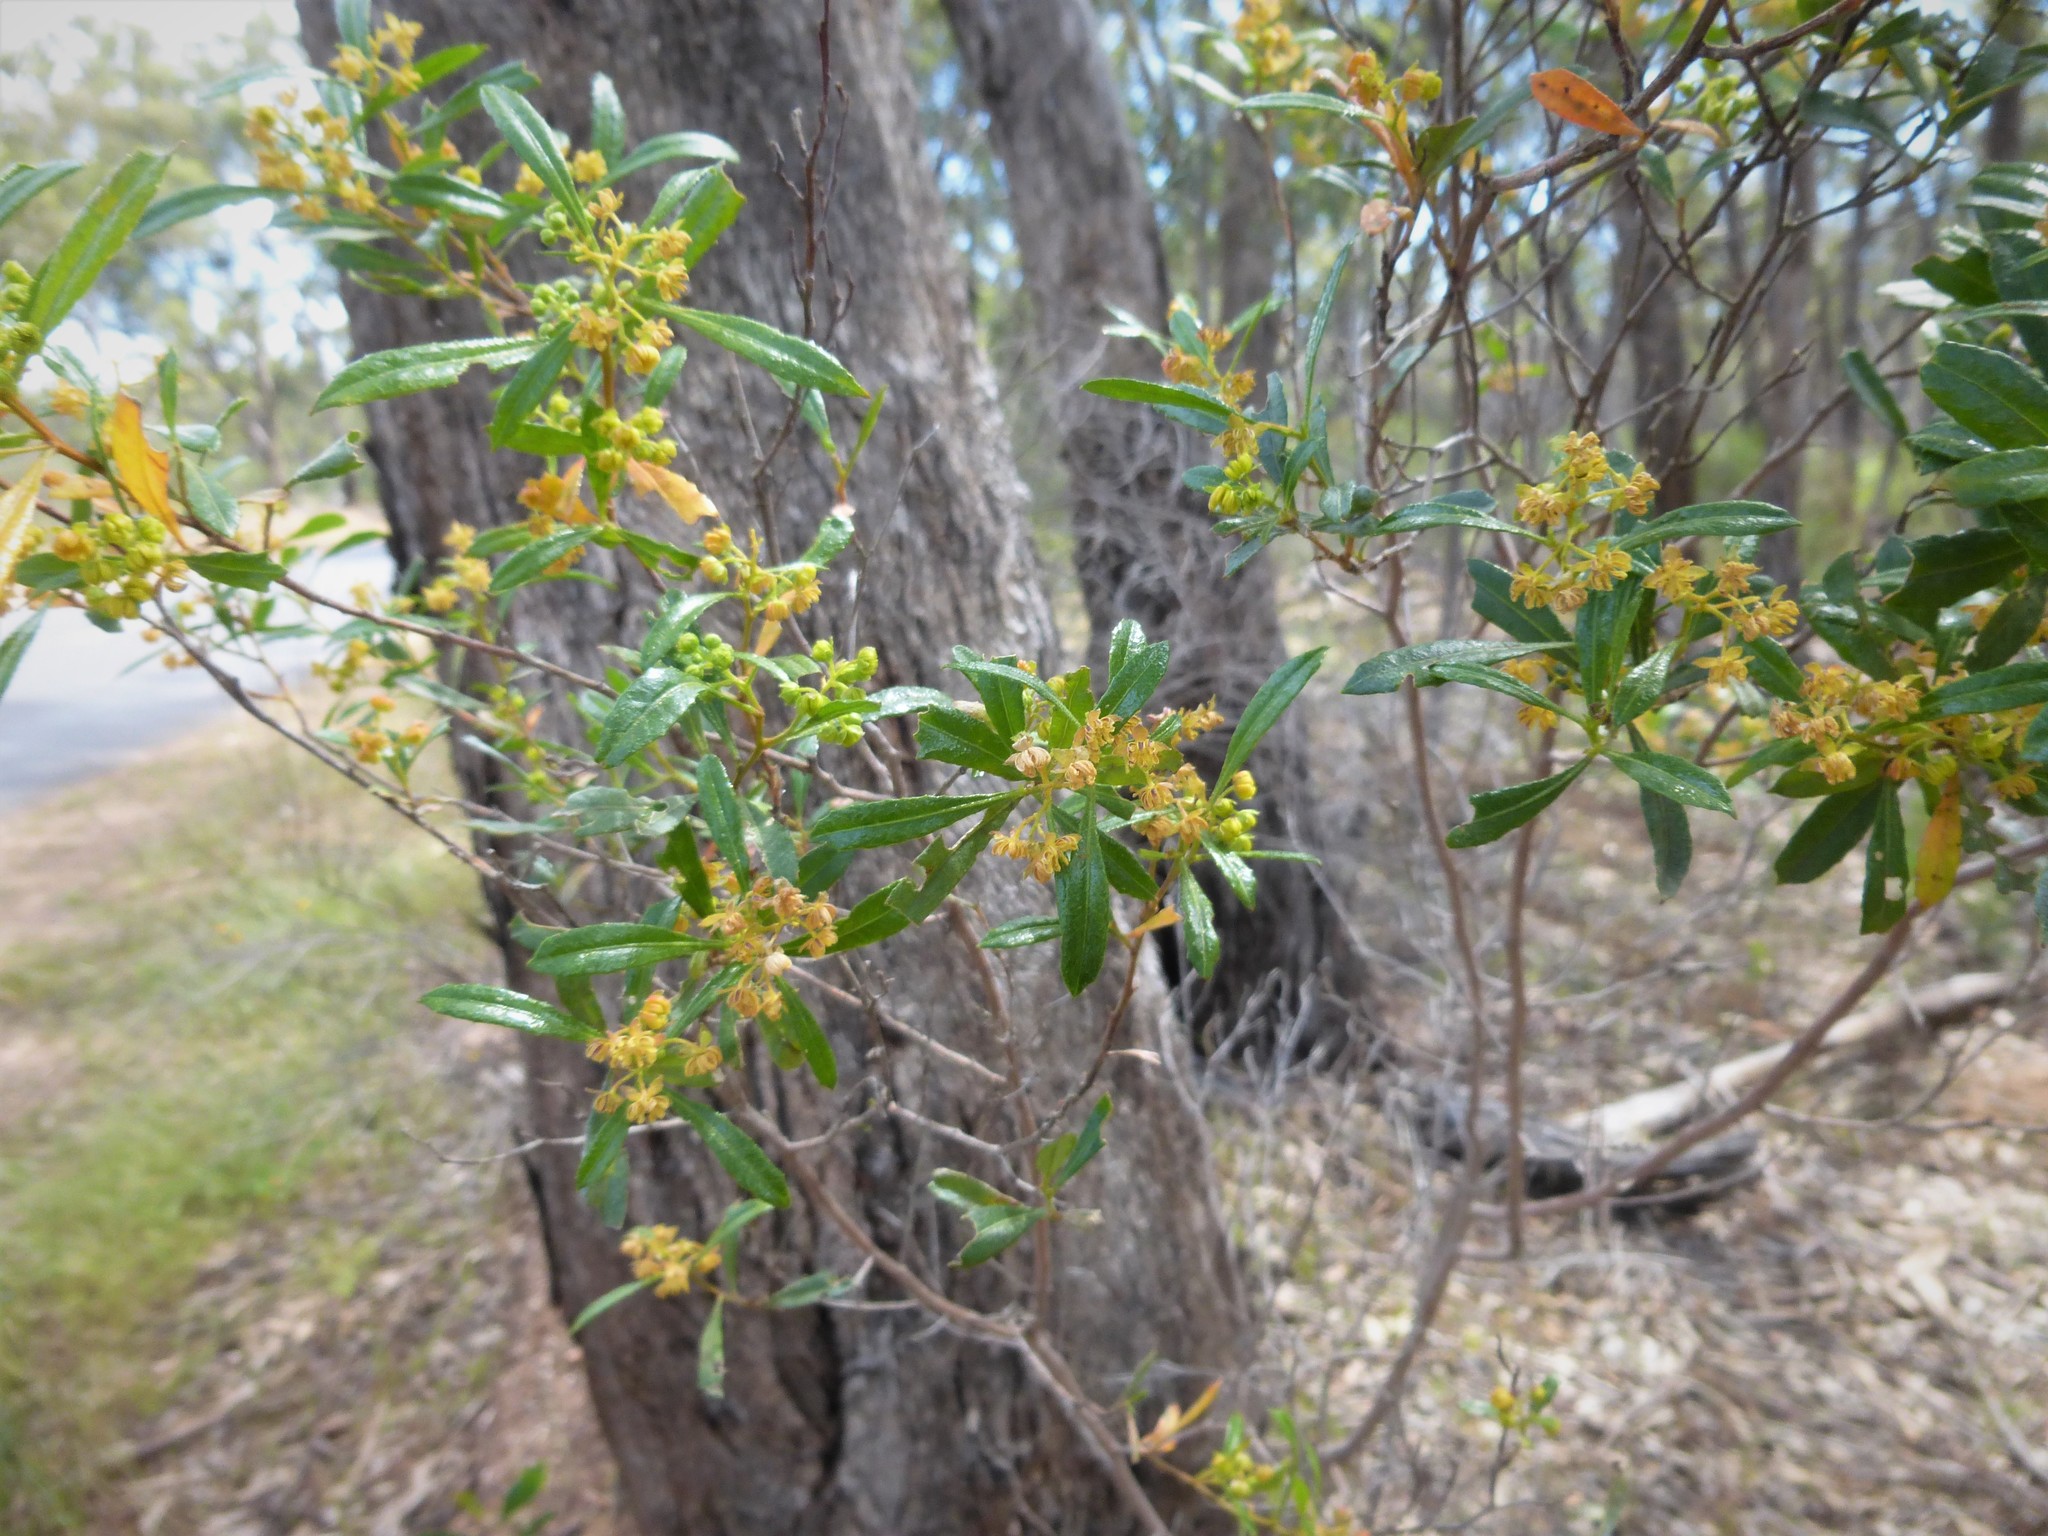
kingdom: Plantae
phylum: Tracheophyta
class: Magnoliopsida
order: Sapindales
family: Sapindaceae
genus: Dodonaea
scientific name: Dodonaea viscosa
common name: Hopbush
